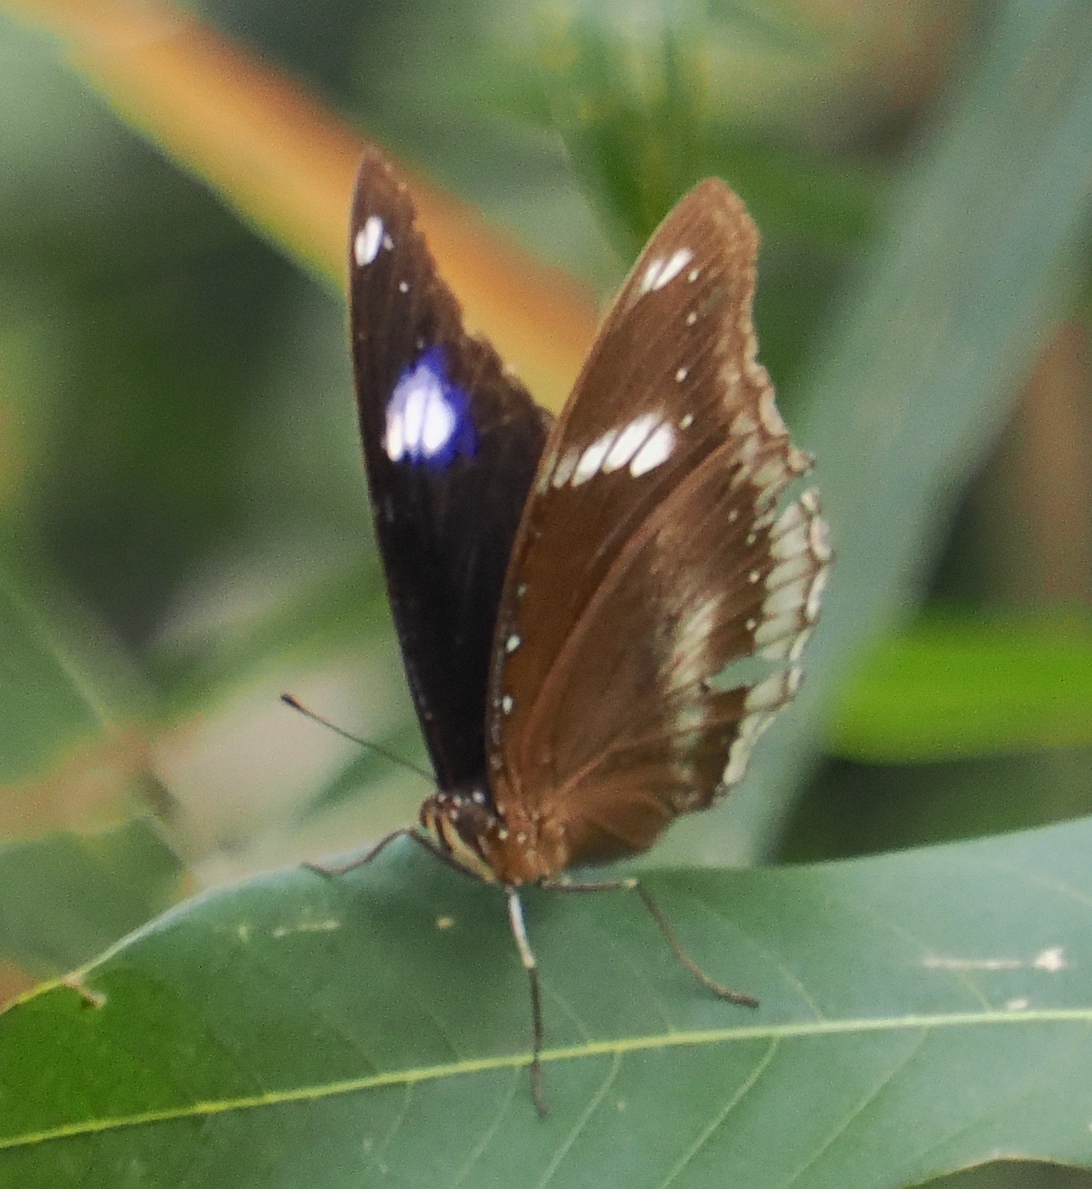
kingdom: Animalia
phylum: Arthropoda
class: Insecta
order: Lepidoptera
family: Nymphalidae
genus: Hypolimnas
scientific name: Hypolimnas bolina
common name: Great eggfly
